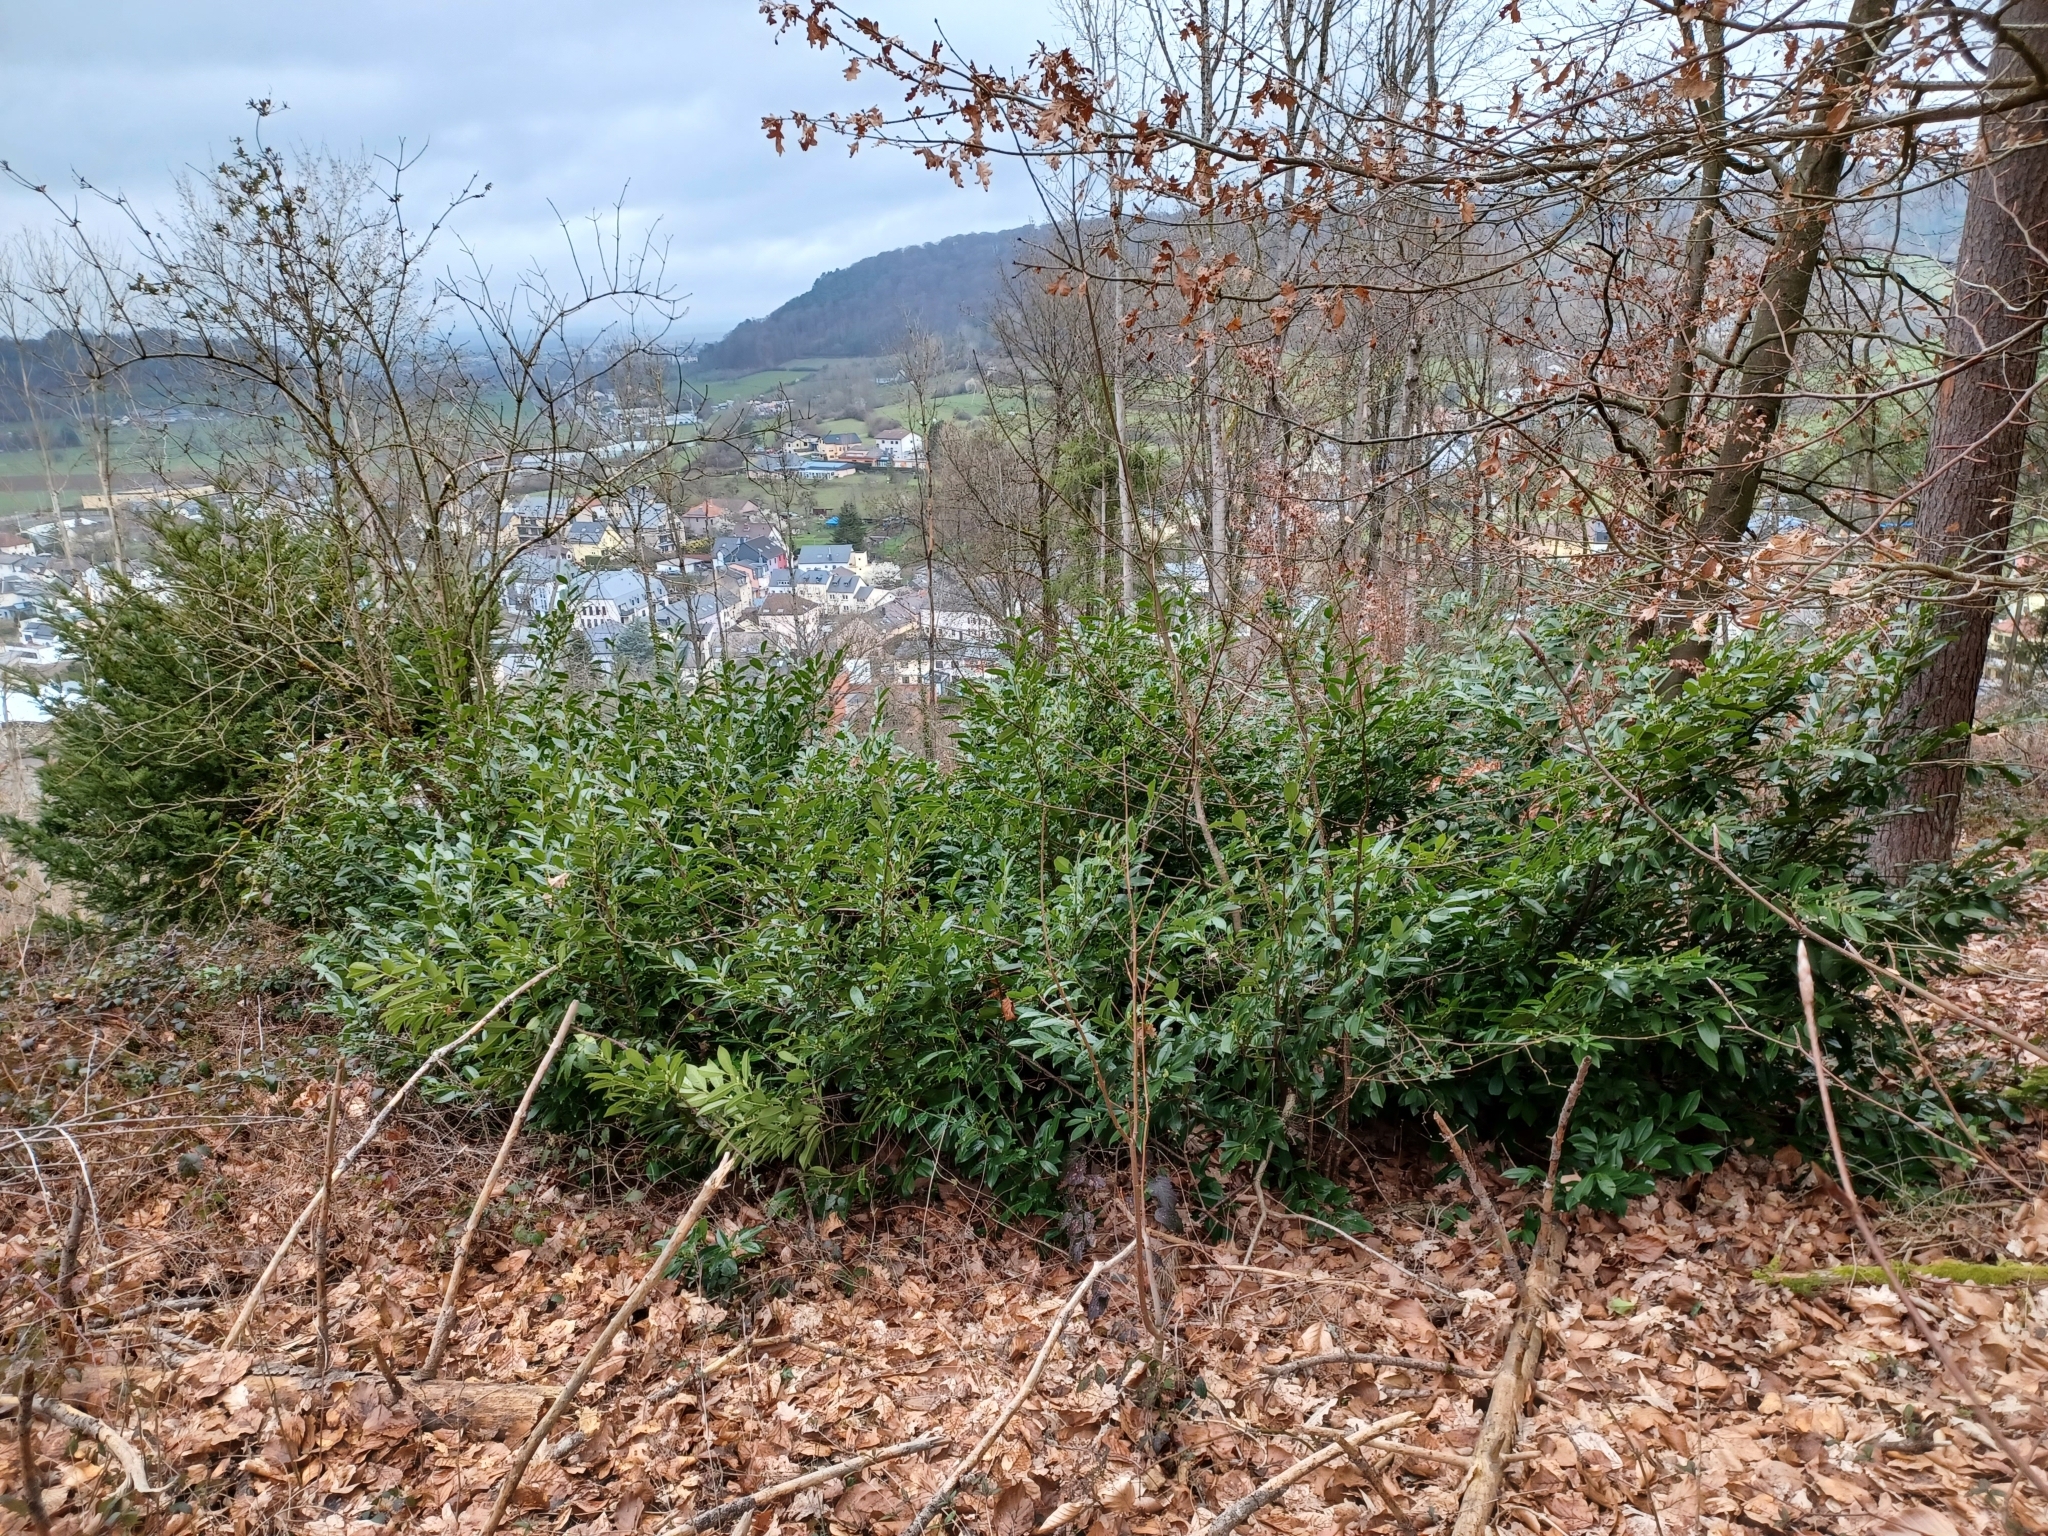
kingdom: Plantae
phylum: Tracheophyta
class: Magnoliopsida
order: Rosales
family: Rosaceae
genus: Prunus
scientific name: Prunus laurocerasus
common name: Cherry laurel
